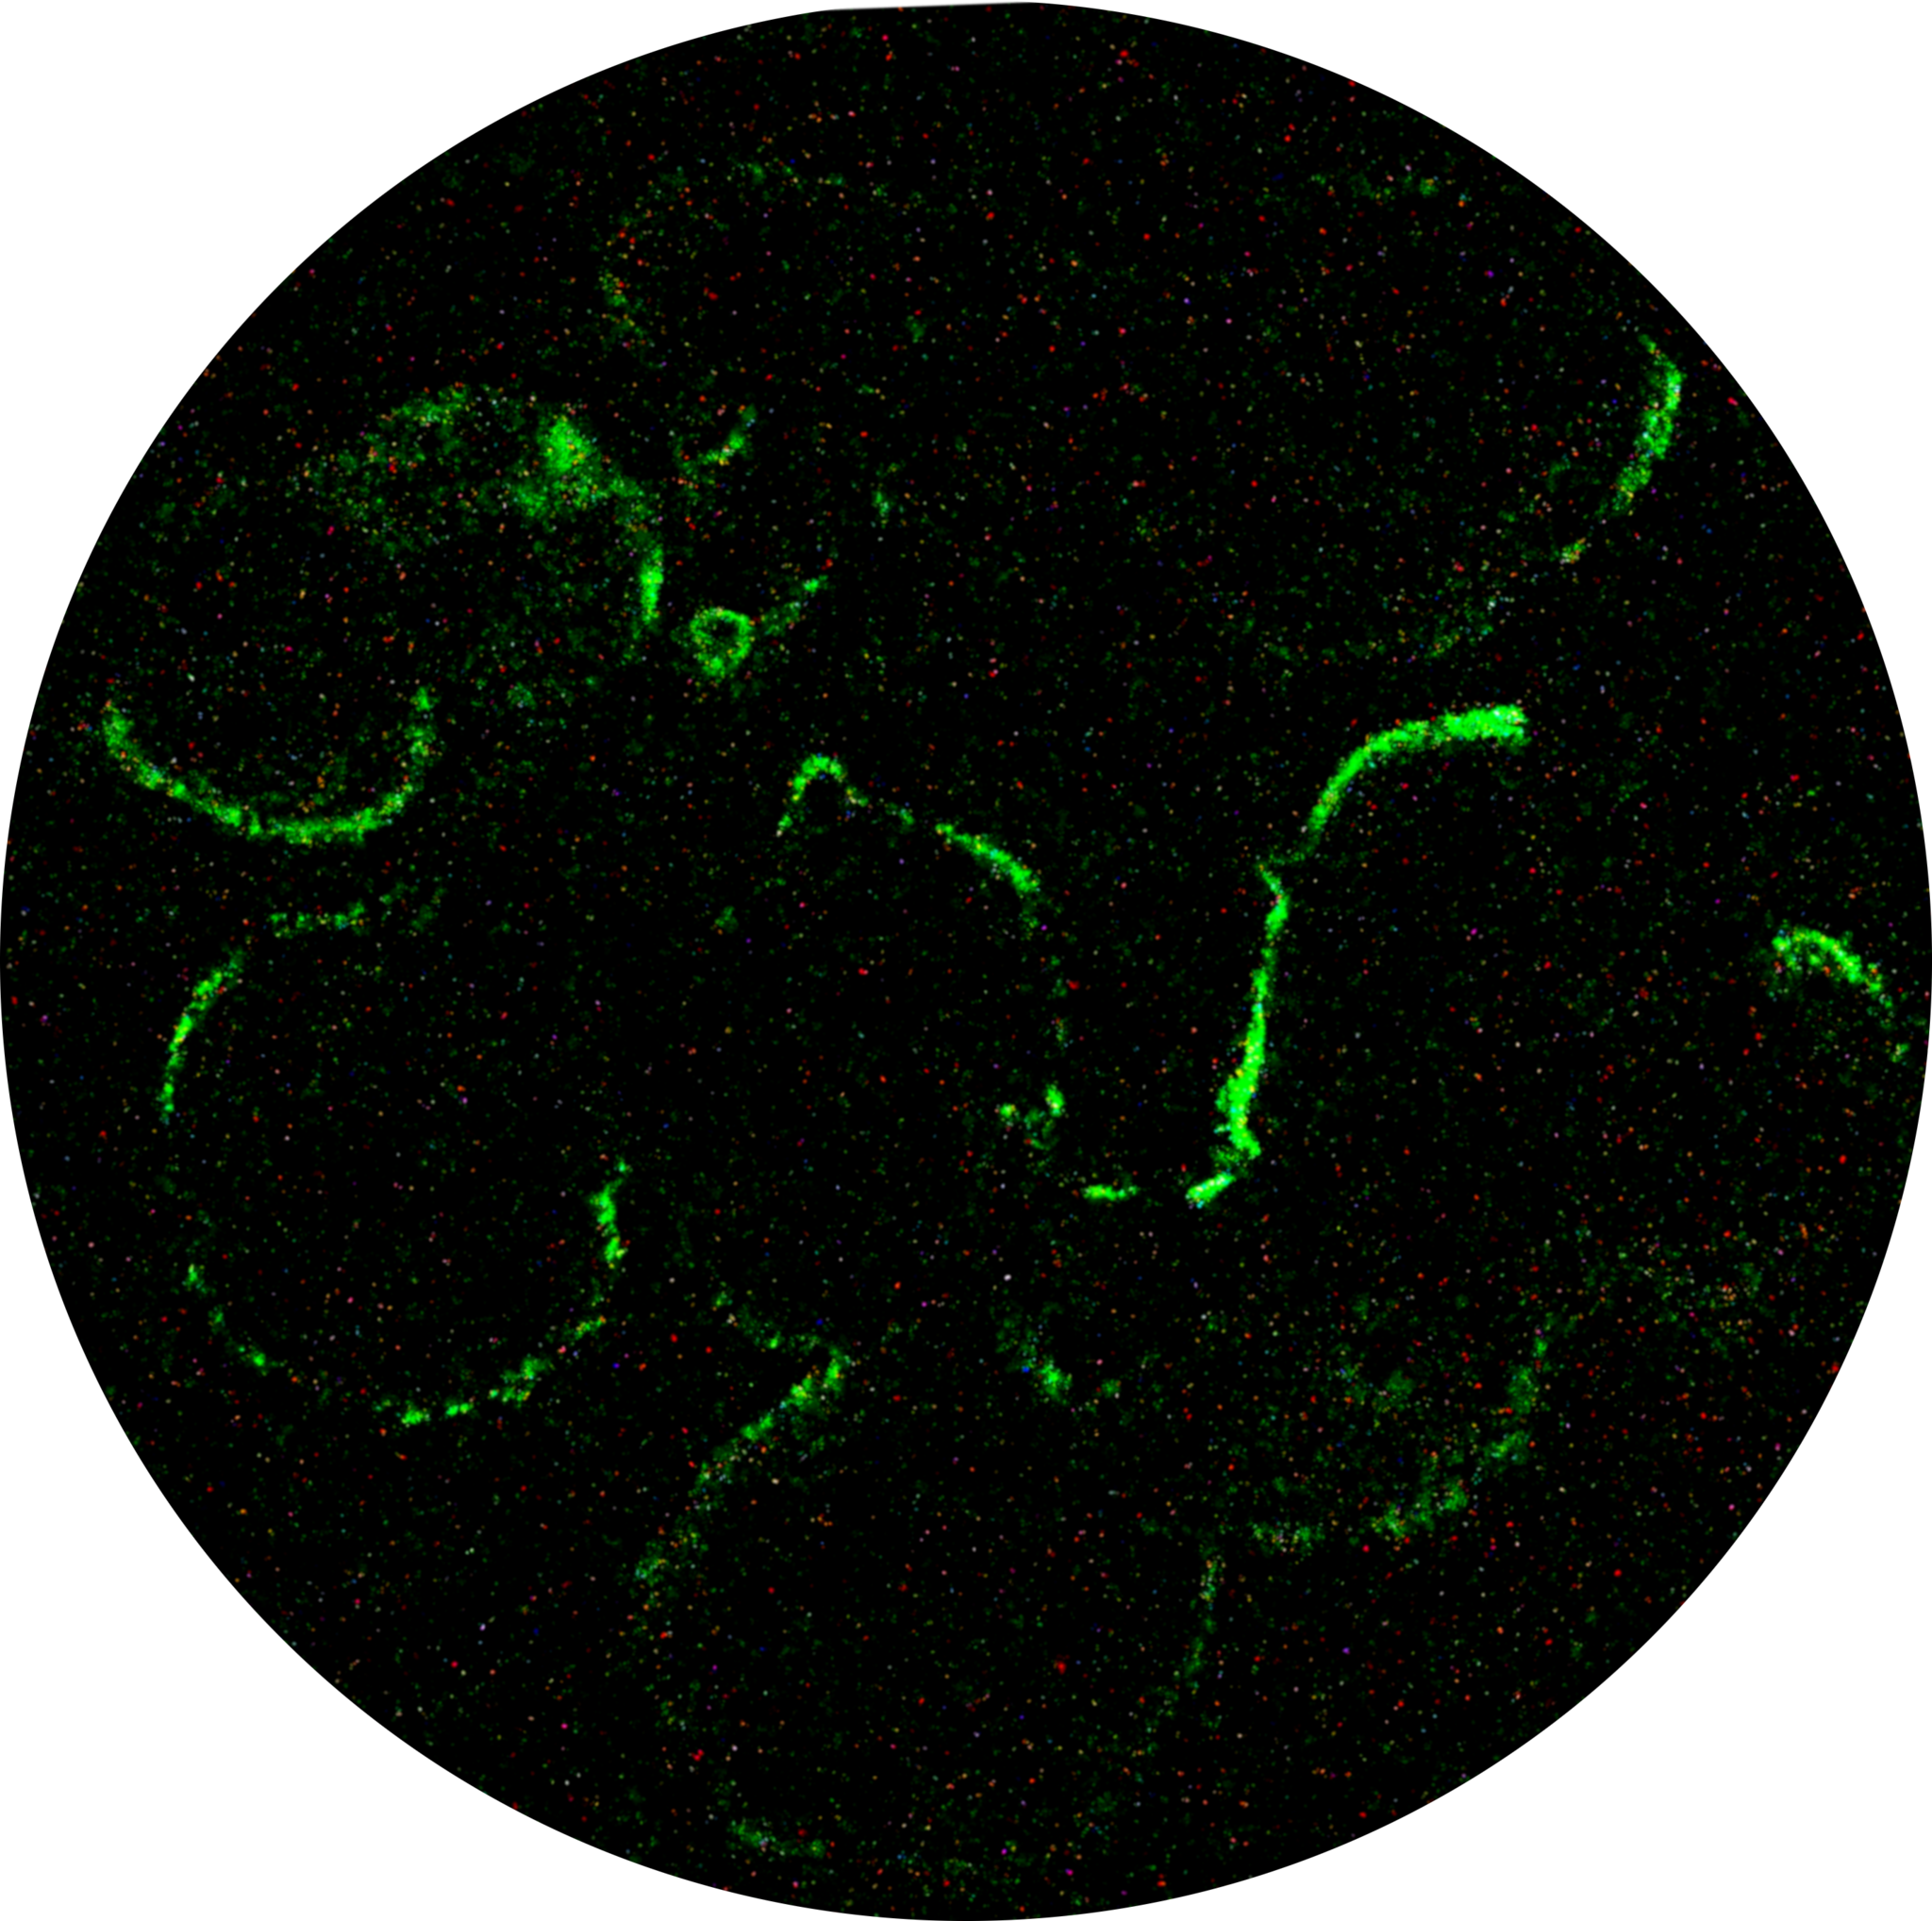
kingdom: Fungi
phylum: Basidiomycota
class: Agaricomycetes
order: Agaricales
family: Physalacriaceae
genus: Armillaria
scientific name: Armillaria mellea
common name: Honey fungus
